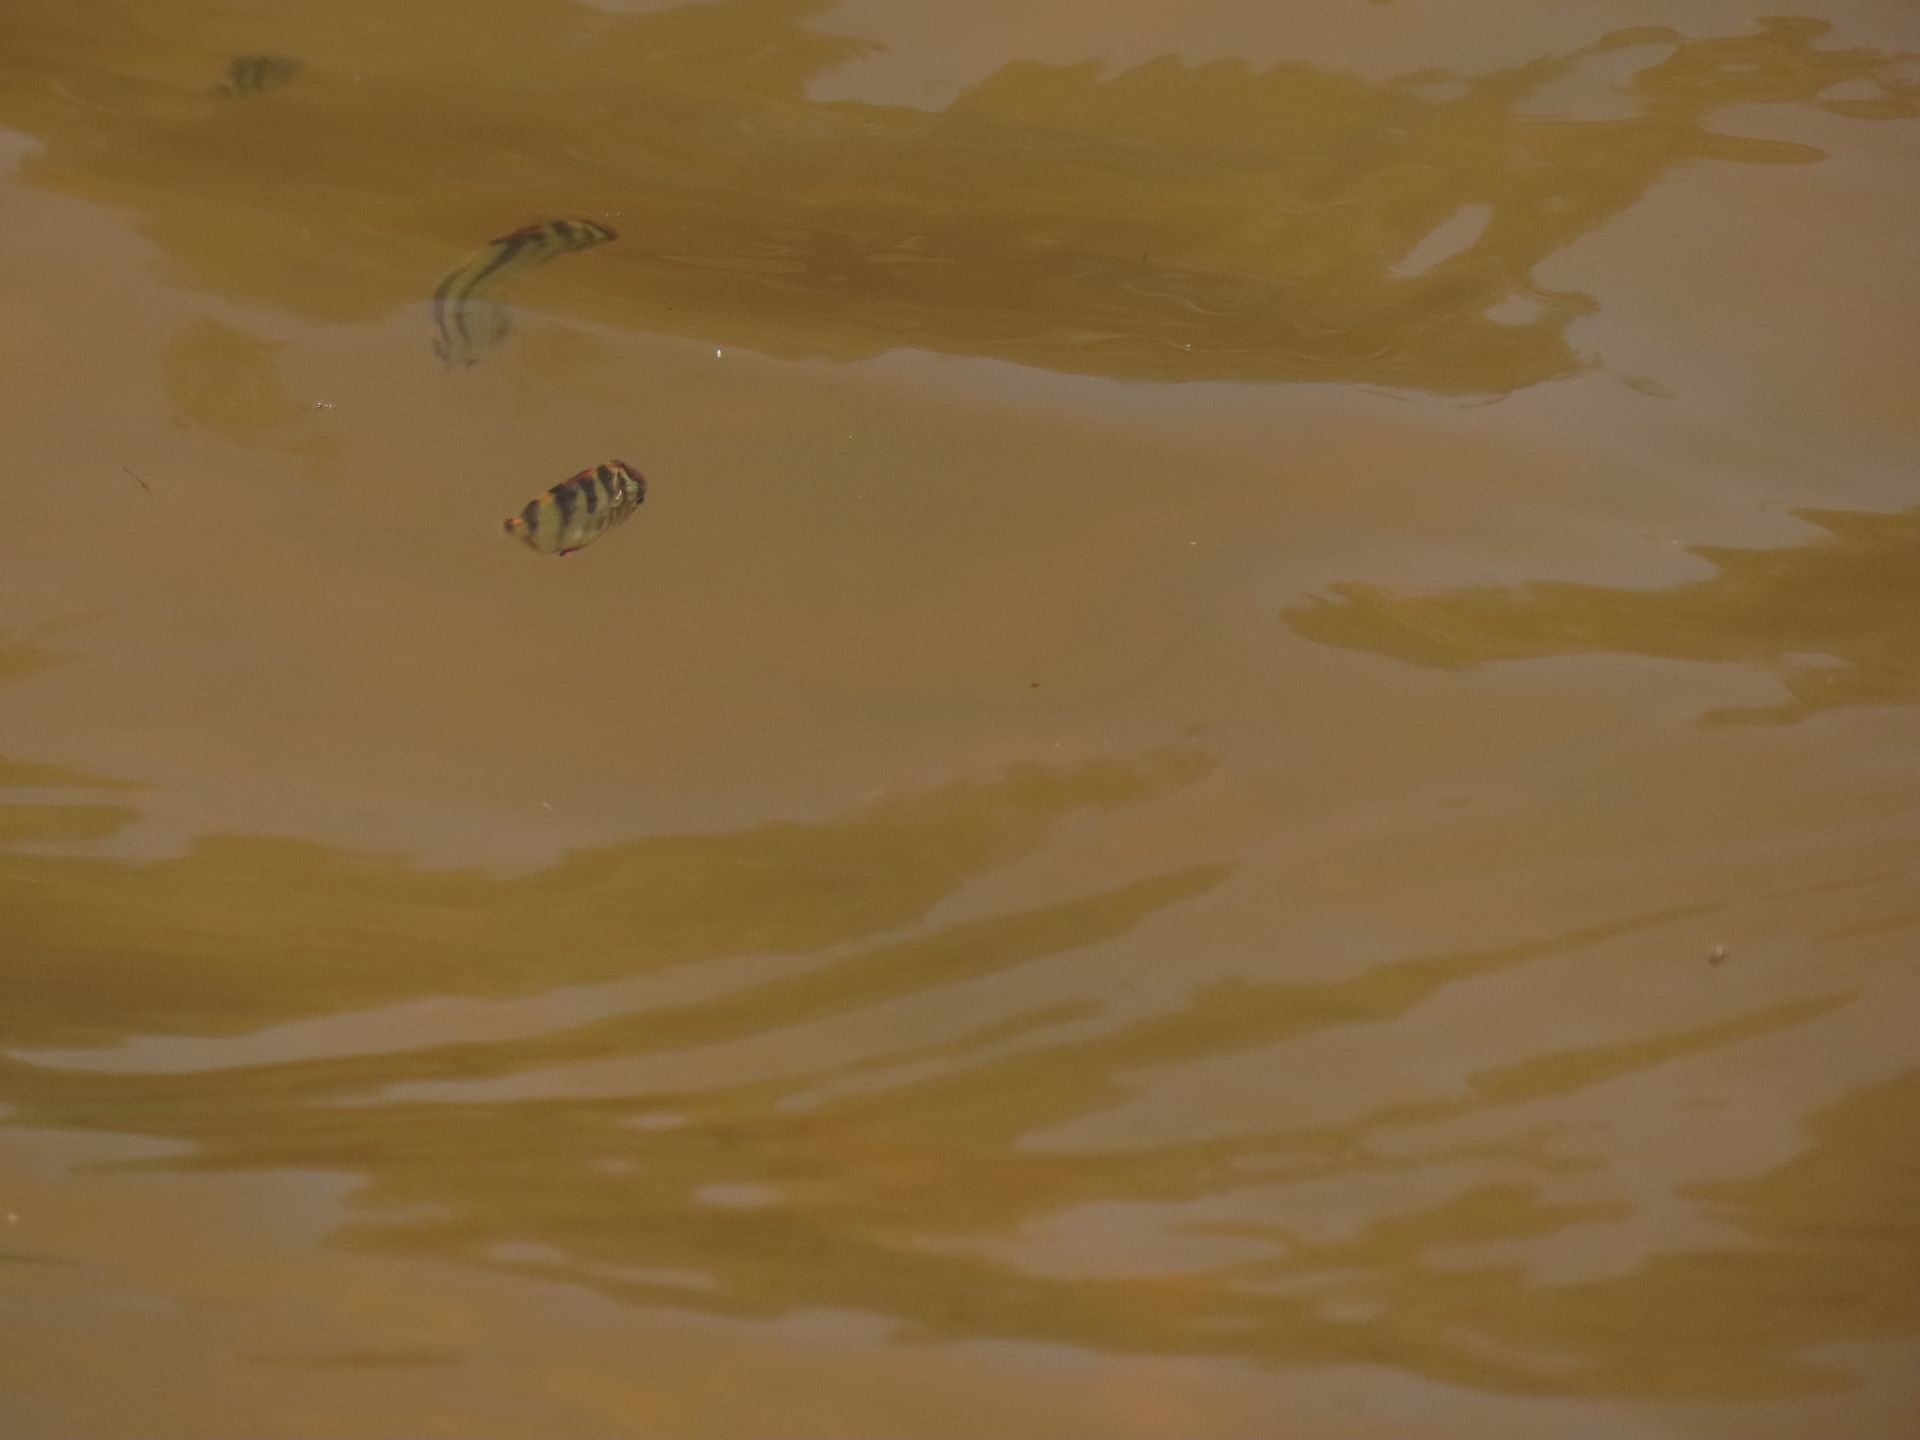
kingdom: Animalia
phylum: Chordata
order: Perciformes
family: Scatophagidae
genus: Selenotoca
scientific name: Selenotoca multifasciata
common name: Striped scat
